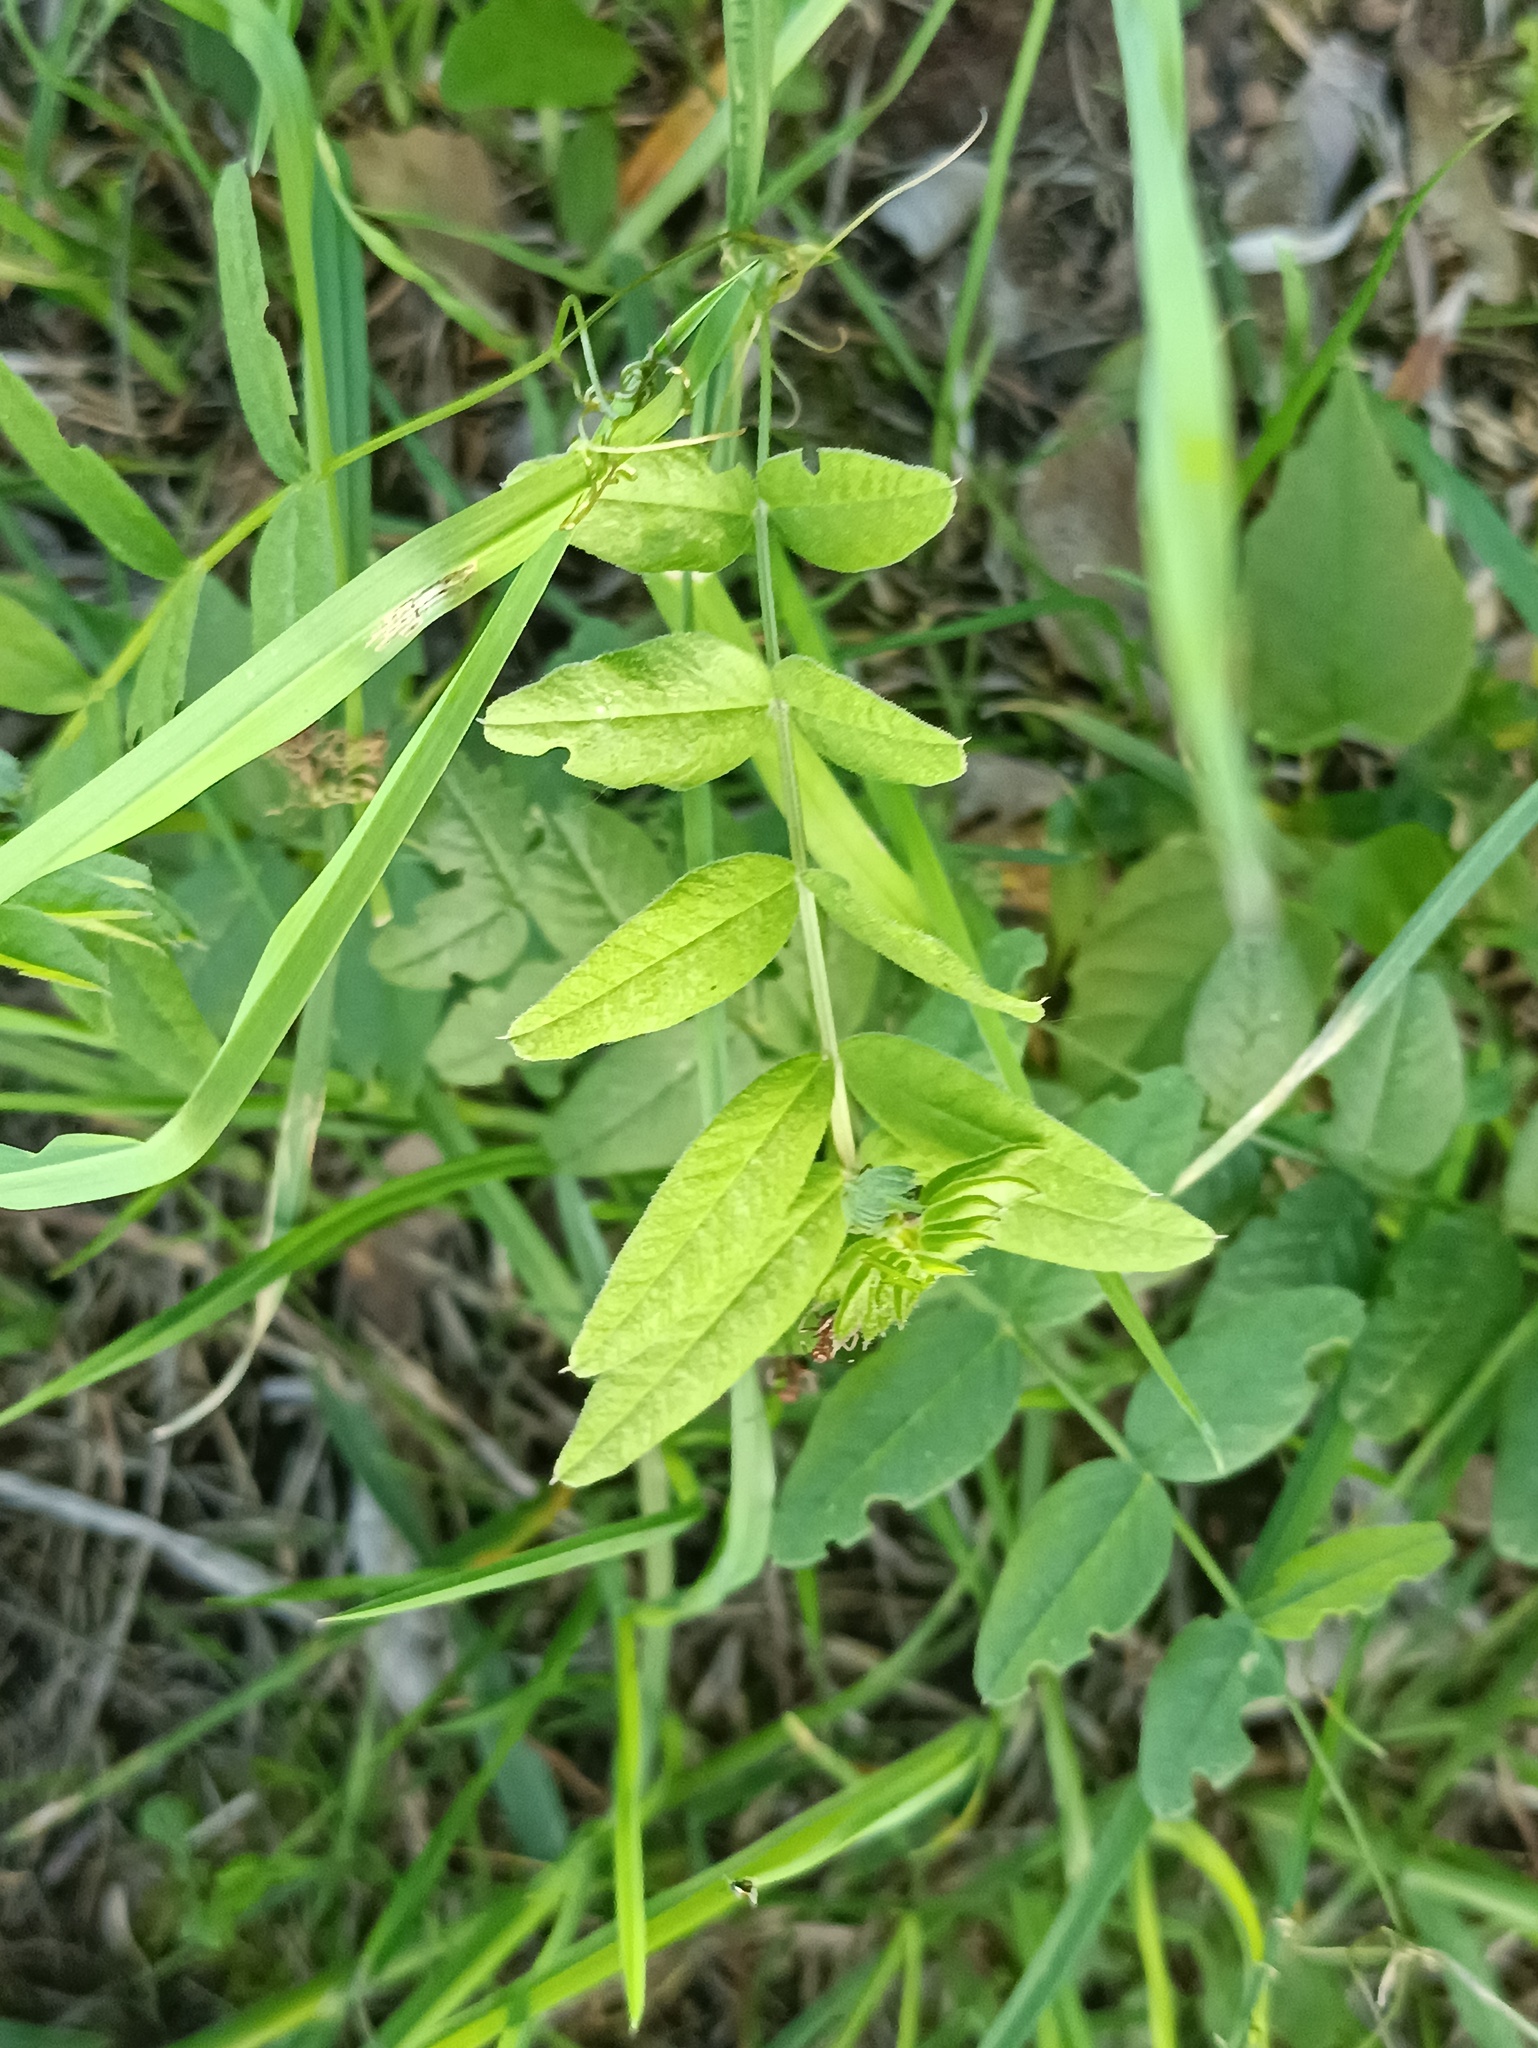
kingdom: Plantae
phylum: Tracheophyta
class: Magnoliopsida
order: Fabales
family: Fabaceae
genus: Vicia
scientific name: Vicia sepium
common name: Bush vetch
